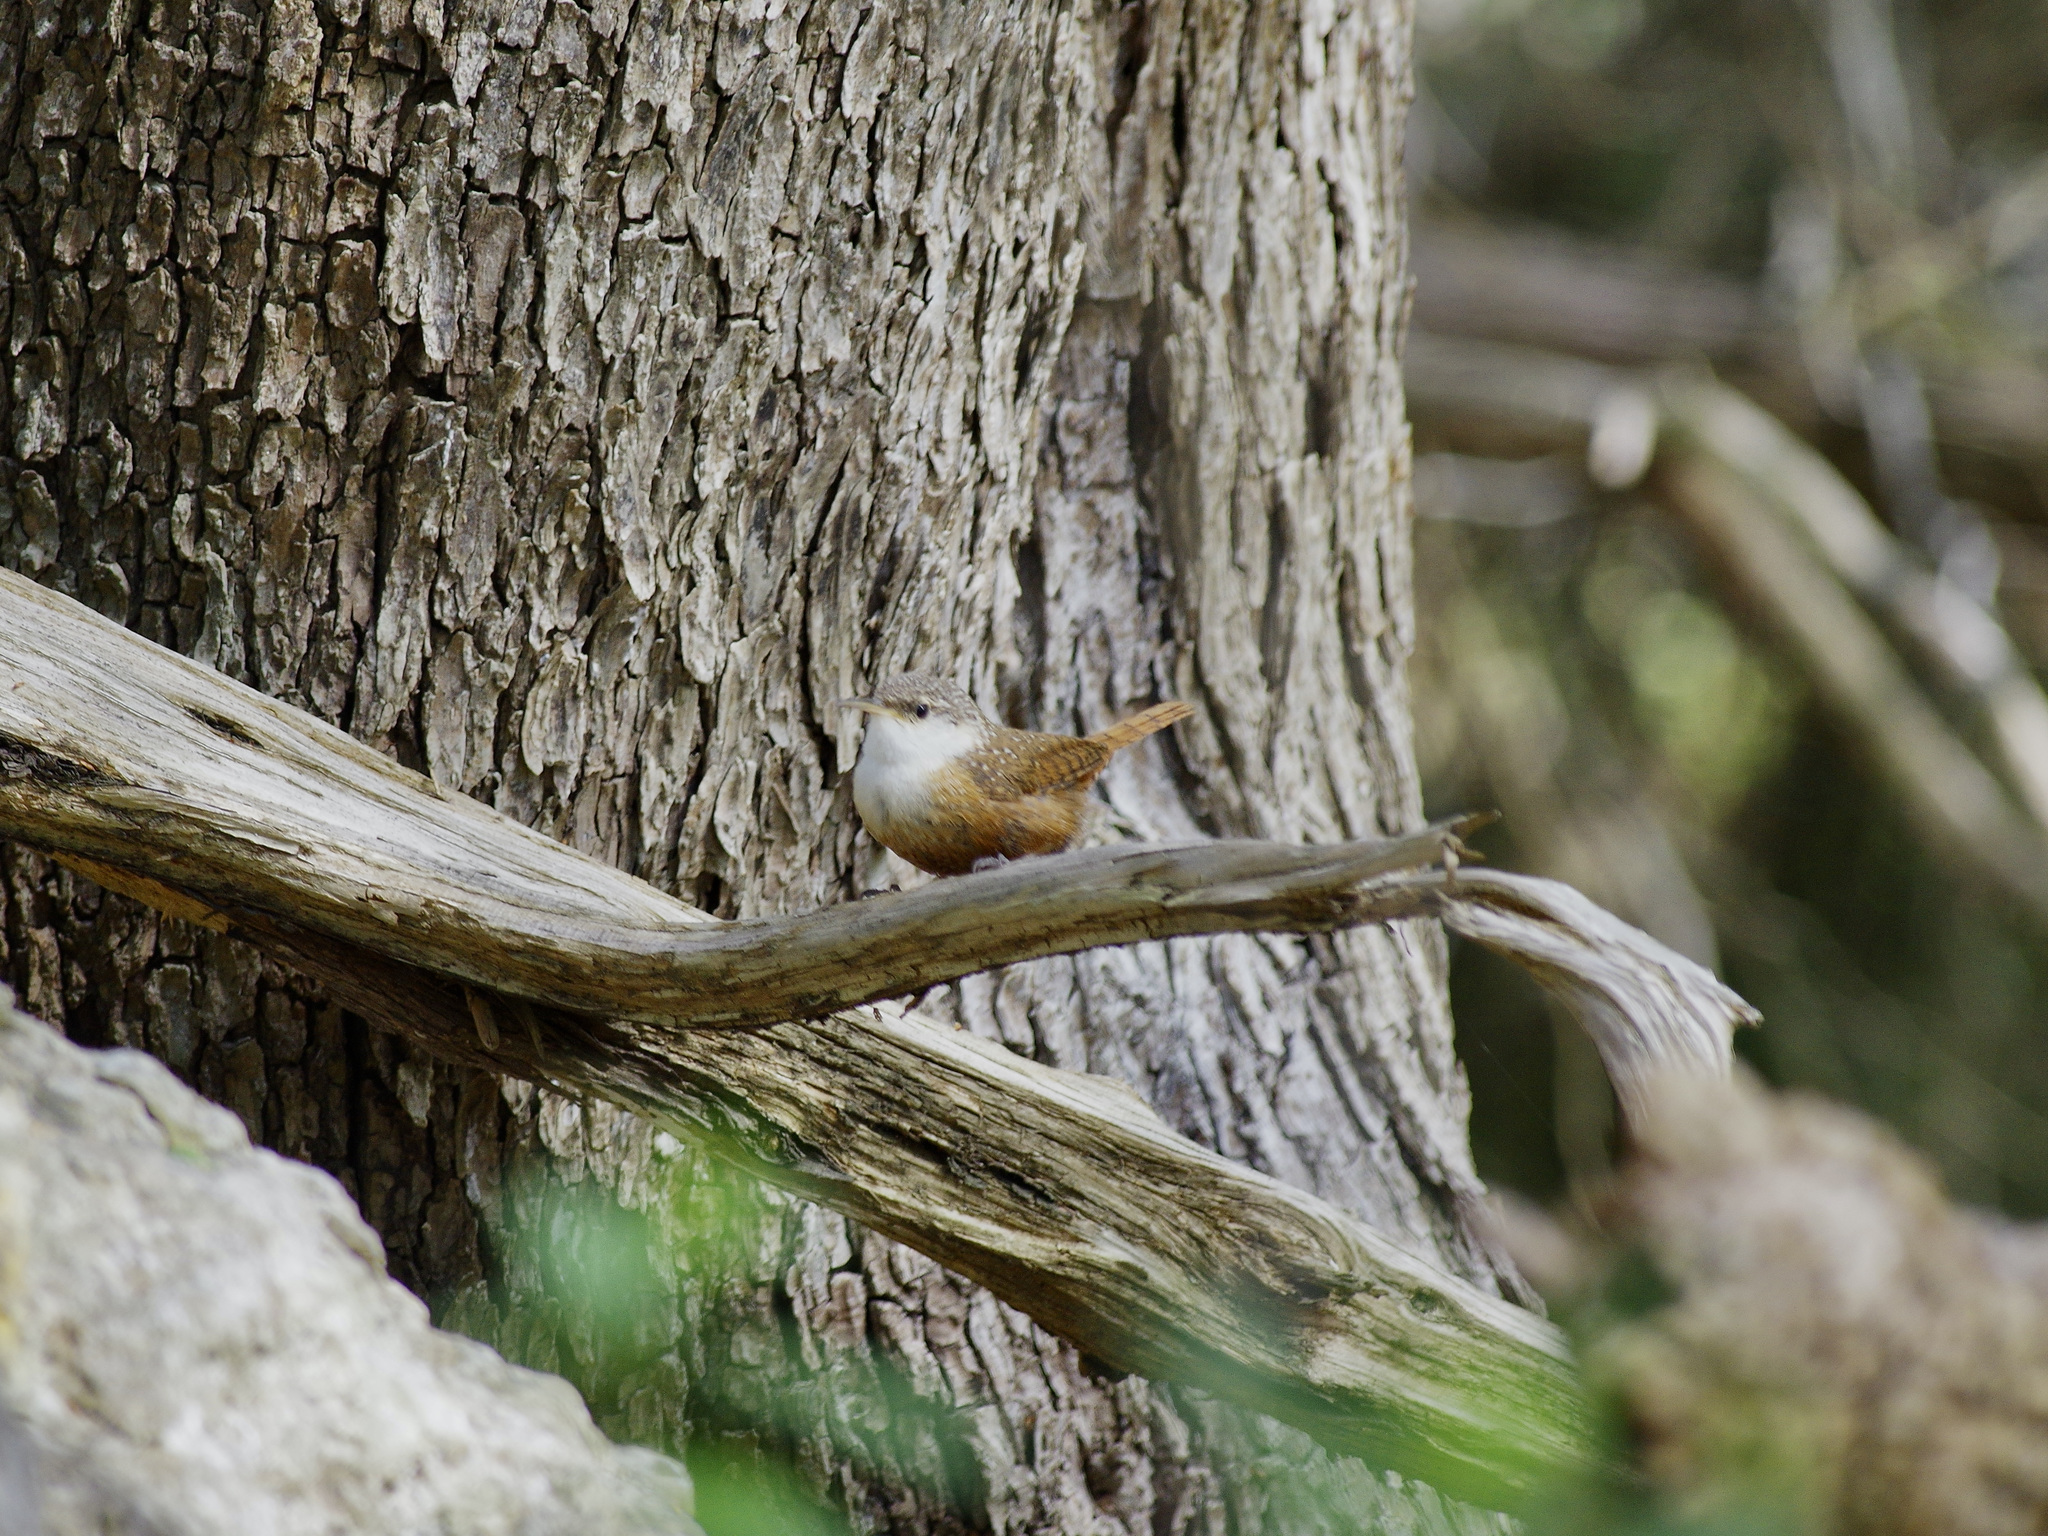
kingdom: Animalia
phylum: Chordata
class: Aves
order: Passeriformes
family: Troglodytidae
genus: Catherpes
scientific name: Catherpes mexicanus
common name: Canyon wren
